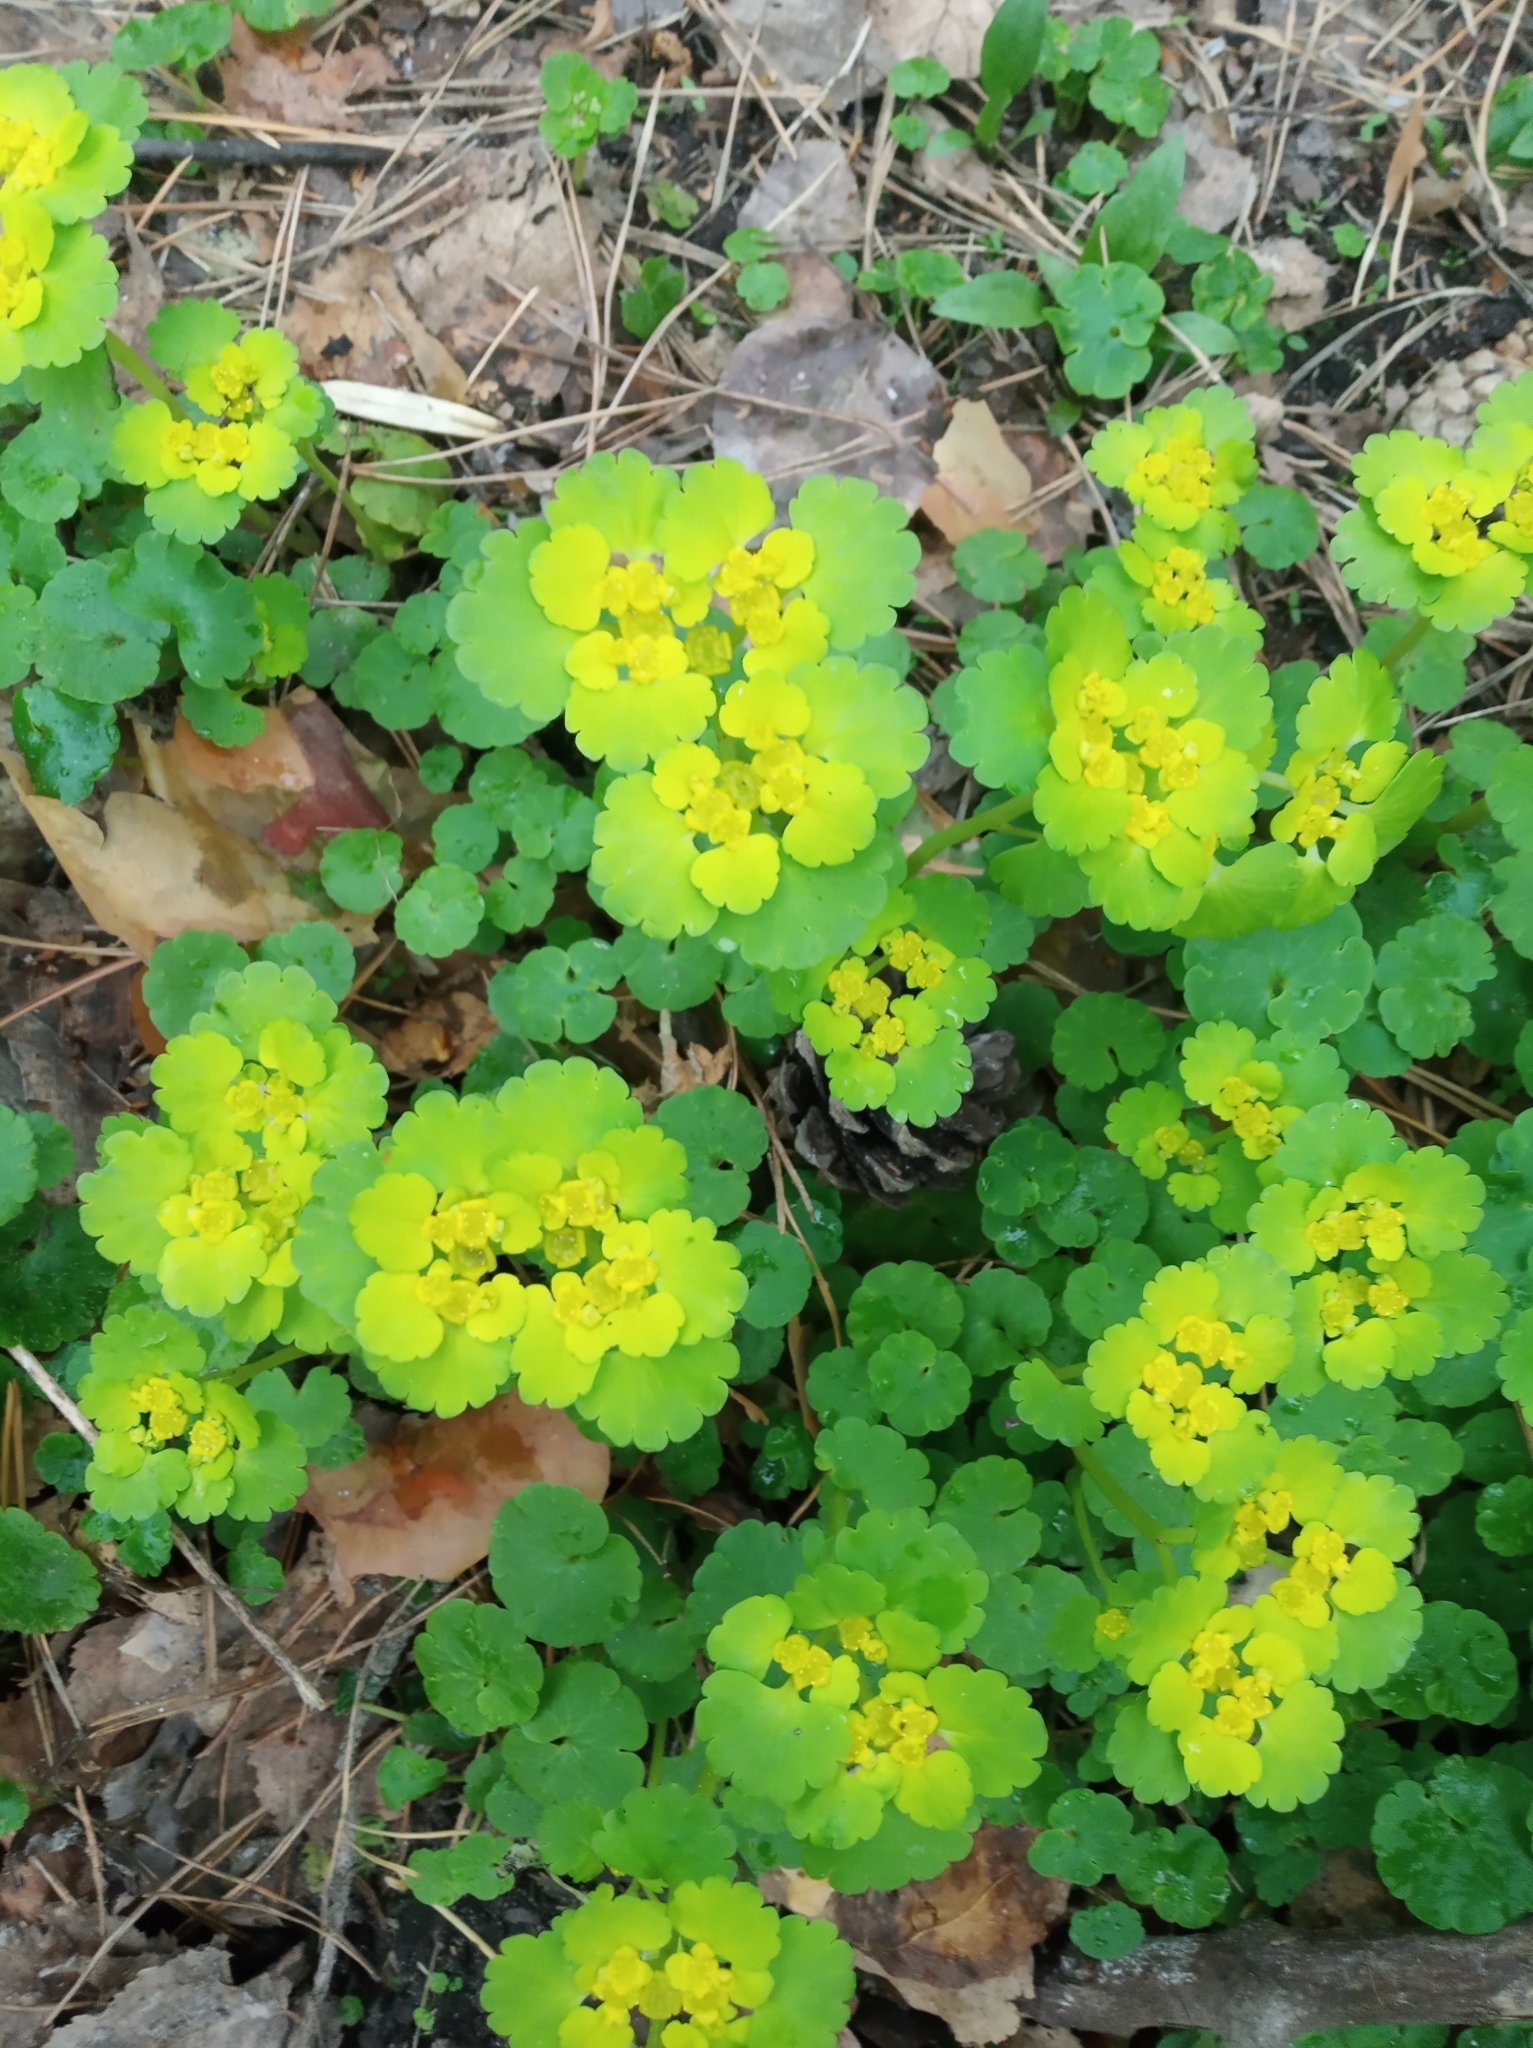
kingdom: Plantae
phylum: Tracheophyta
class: Magnoliopsida
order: Saxifragales
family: Saxifragaceae
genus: Chrysosplenium
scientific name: Chrysosplenium alternifolium
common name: Alternate-leaved golden-saxifrage
